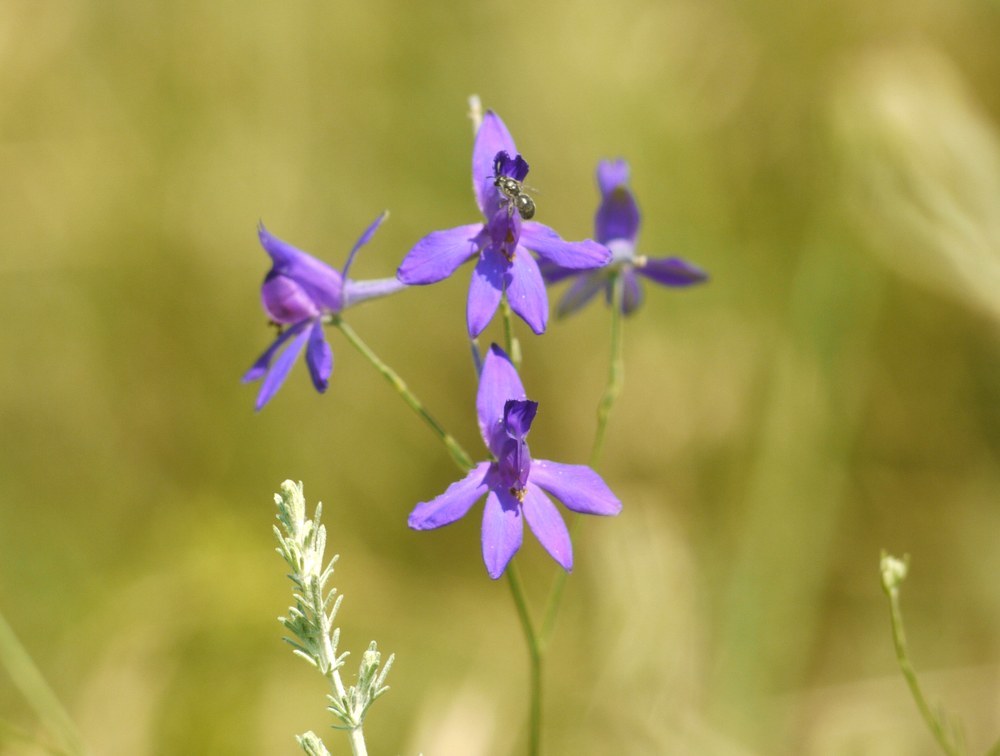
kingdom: Plantae
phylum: Tracheophyta
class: Magnoliopsida
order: Ranunculales
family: Ranunculaceae
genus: Delphinium
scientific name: Delphinium consolida
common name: Branching larkspur
